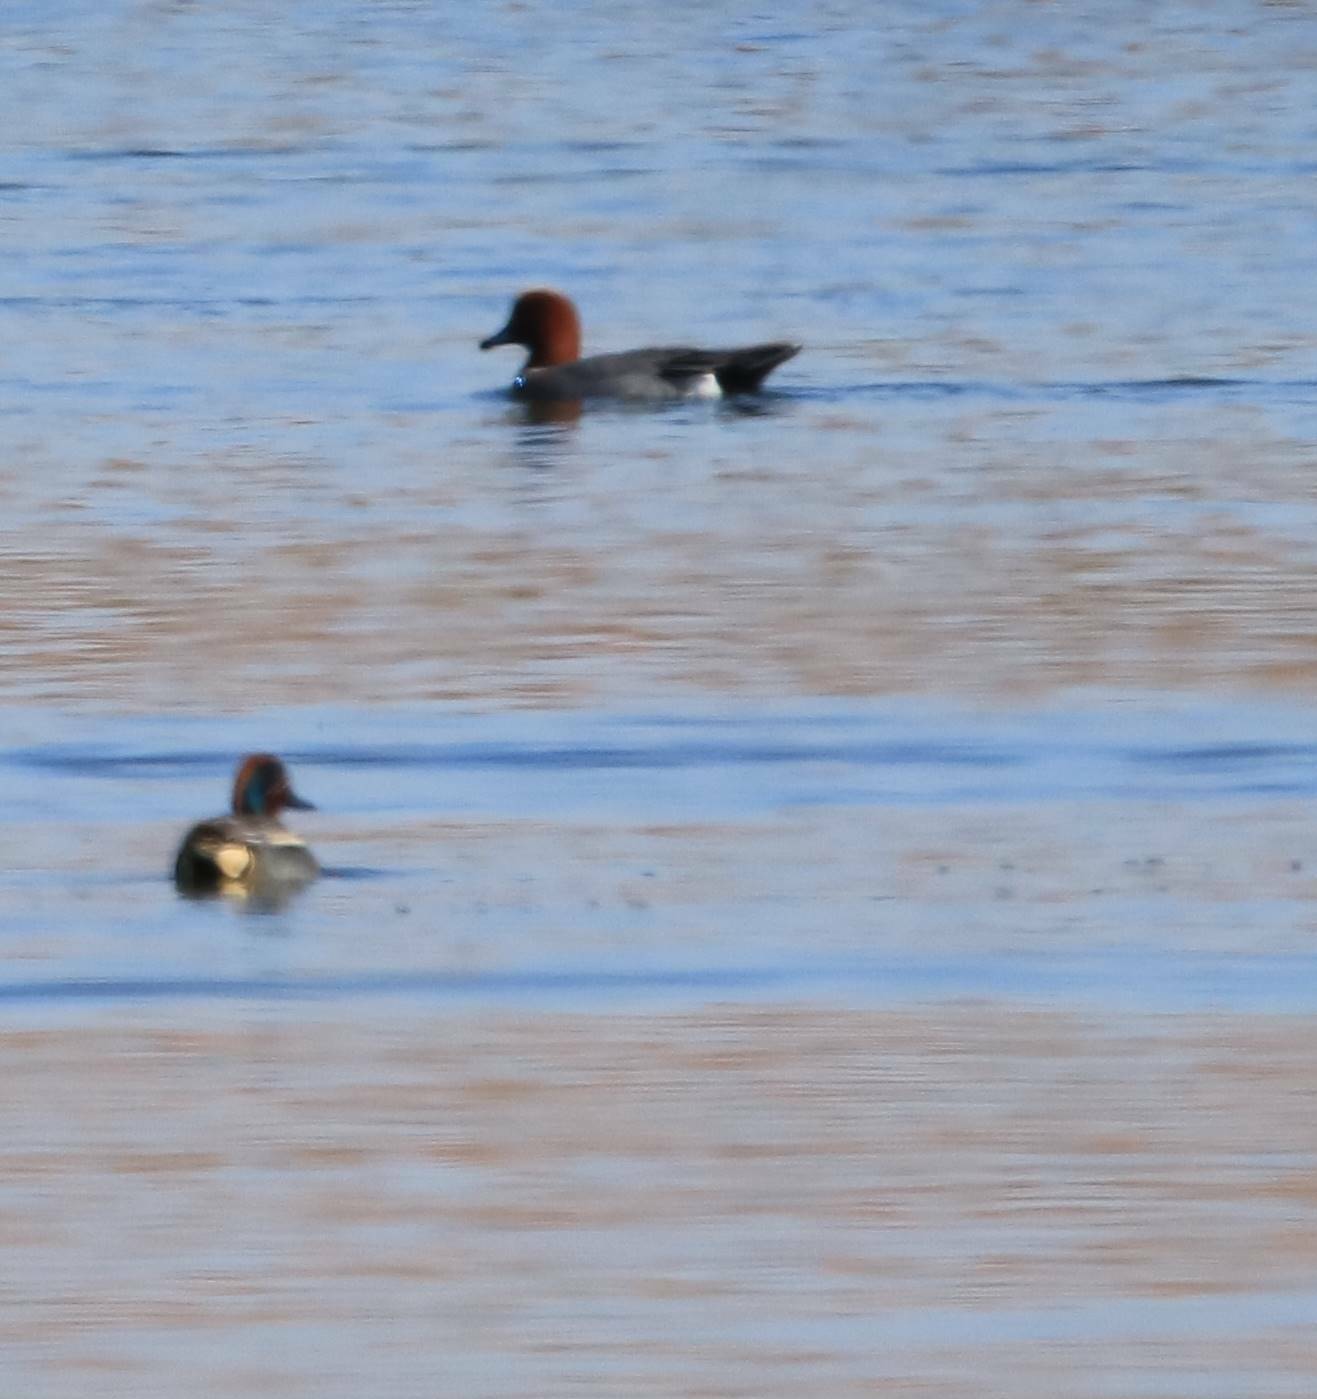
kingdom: Animalia
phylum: Chordata
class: Aves
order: Anseriformes
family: Anatidae
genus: Mareca
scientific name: Mareca penelope
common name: Eurasian wigeon
